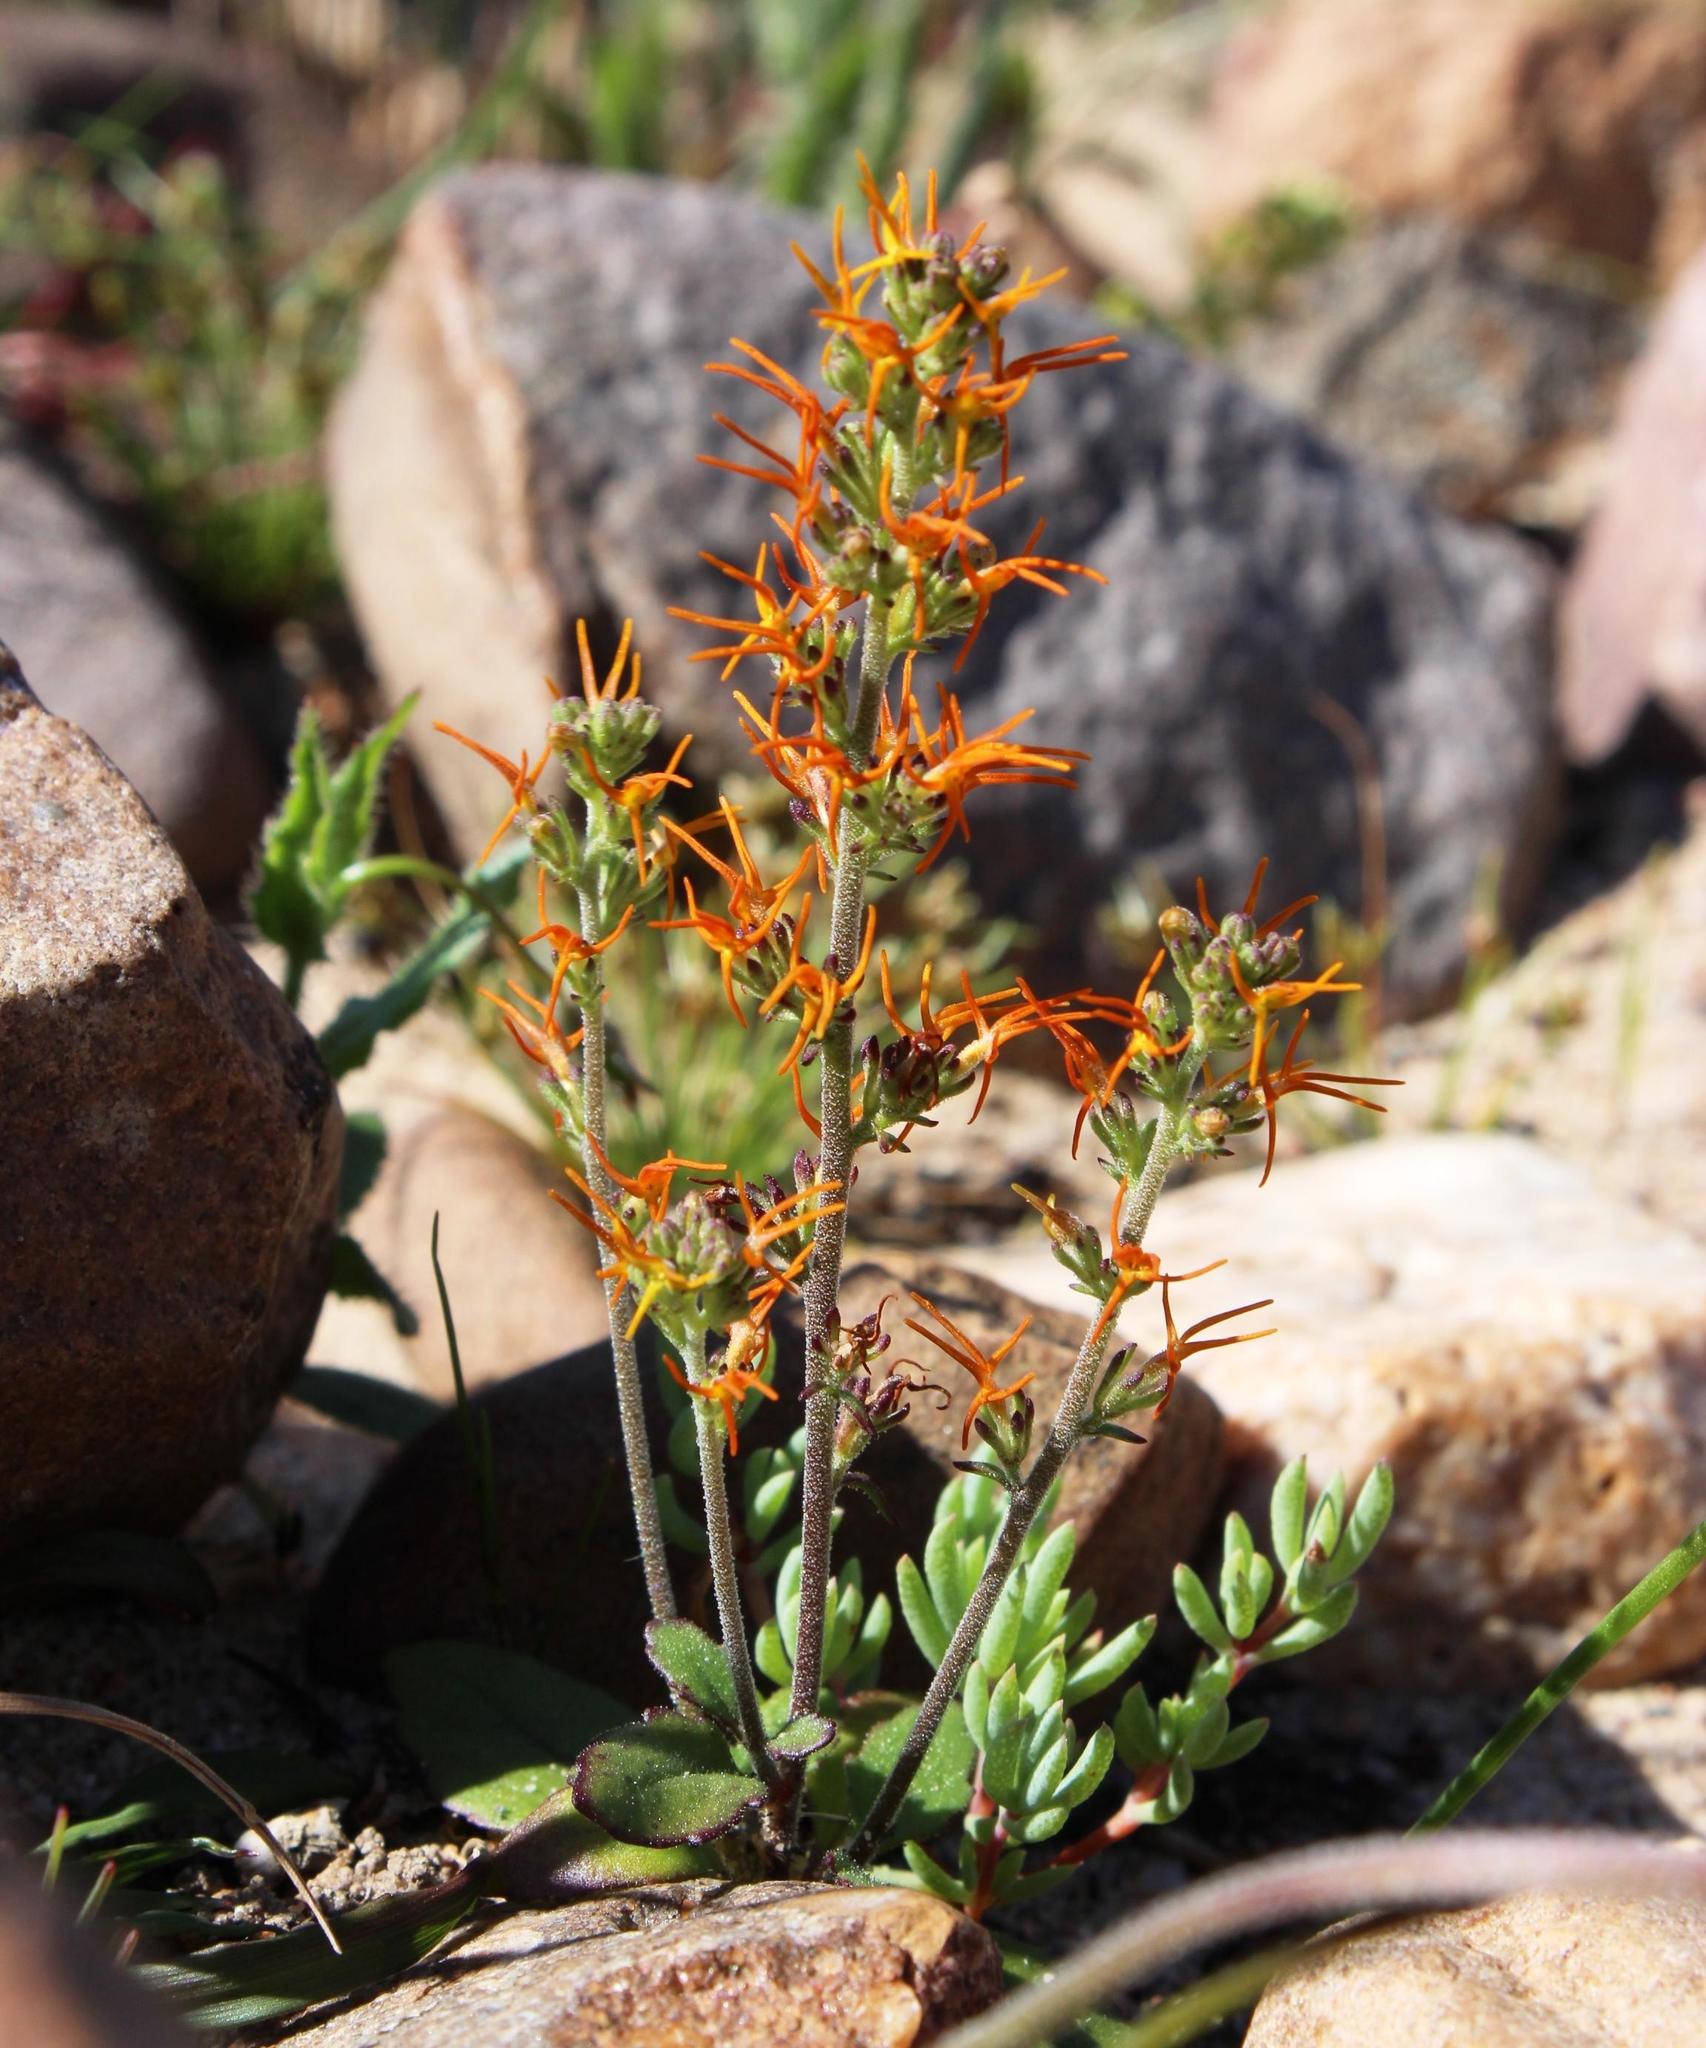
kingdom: Plantae
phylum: Tracheophyta
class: Magnoliopsida
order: Lamiales
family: Scrophulariaceae
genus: Manulea
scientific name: Manulea cheiranthus
